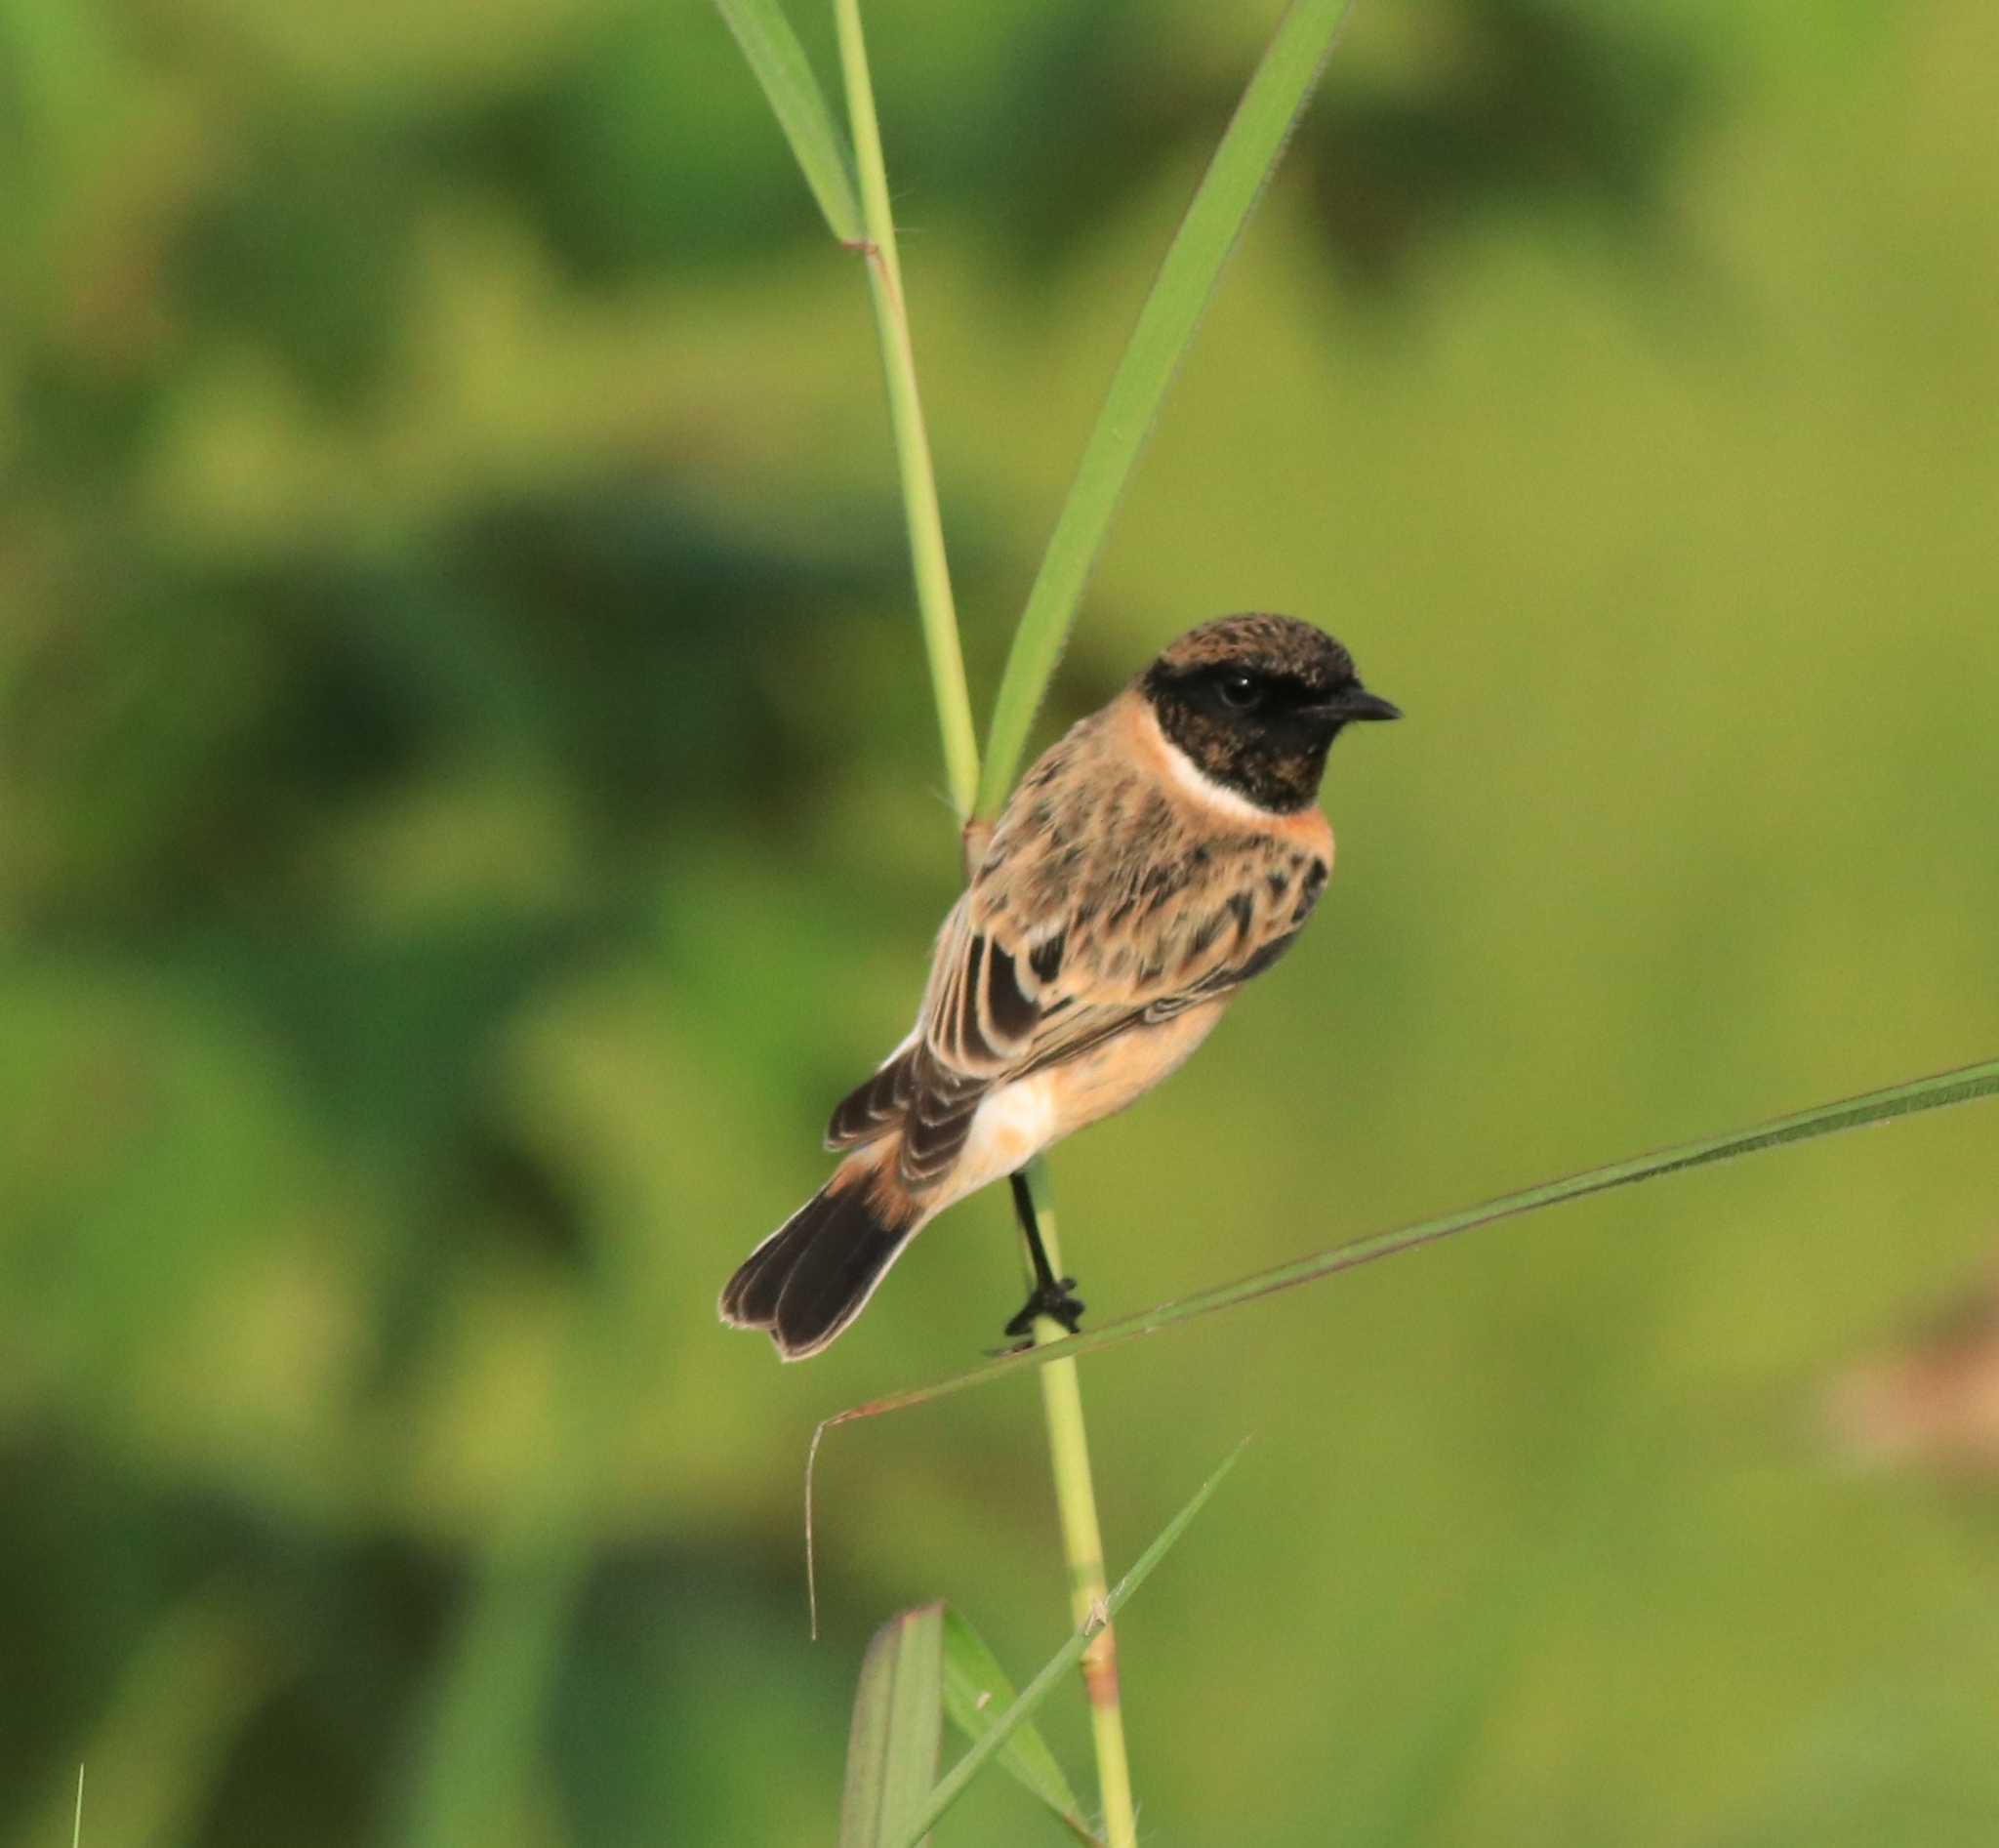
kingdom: Animalia
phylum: Chordata
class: Aves
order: Passeriformes
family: Muscicapidae
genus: Saxicola
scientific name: Saxicola maurus
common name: Siberian stonechat
